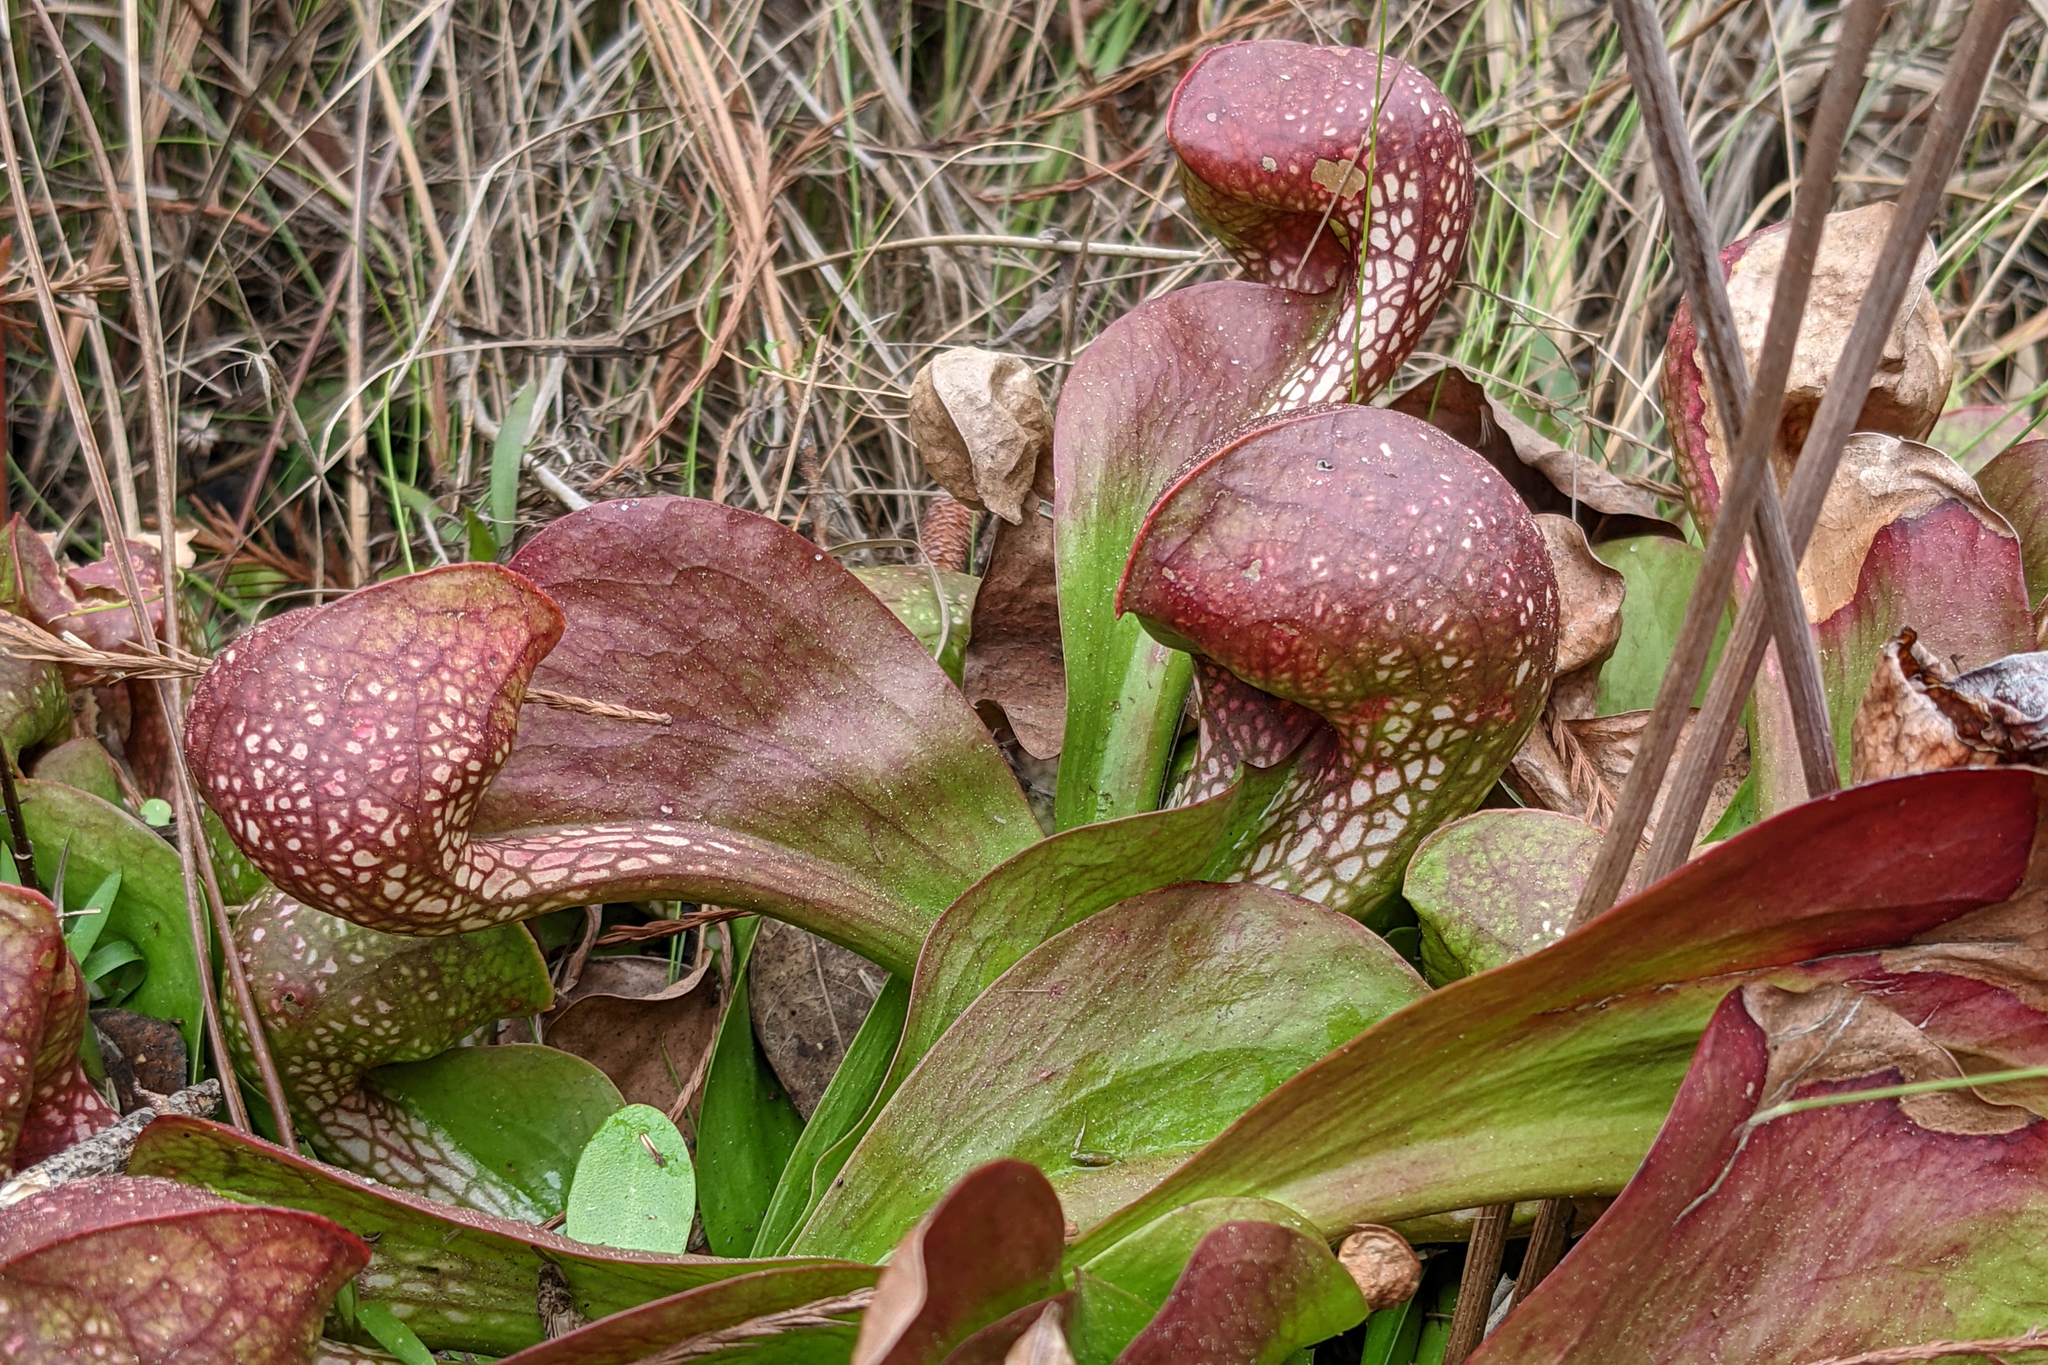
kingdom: Plantae
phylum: Tracheophyta
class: Magnoliopsida
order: Ericales
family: Sarraceniaceae
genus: Sarracenia
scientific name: Sarracenia psittacina
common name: Parrot pitcherplant
